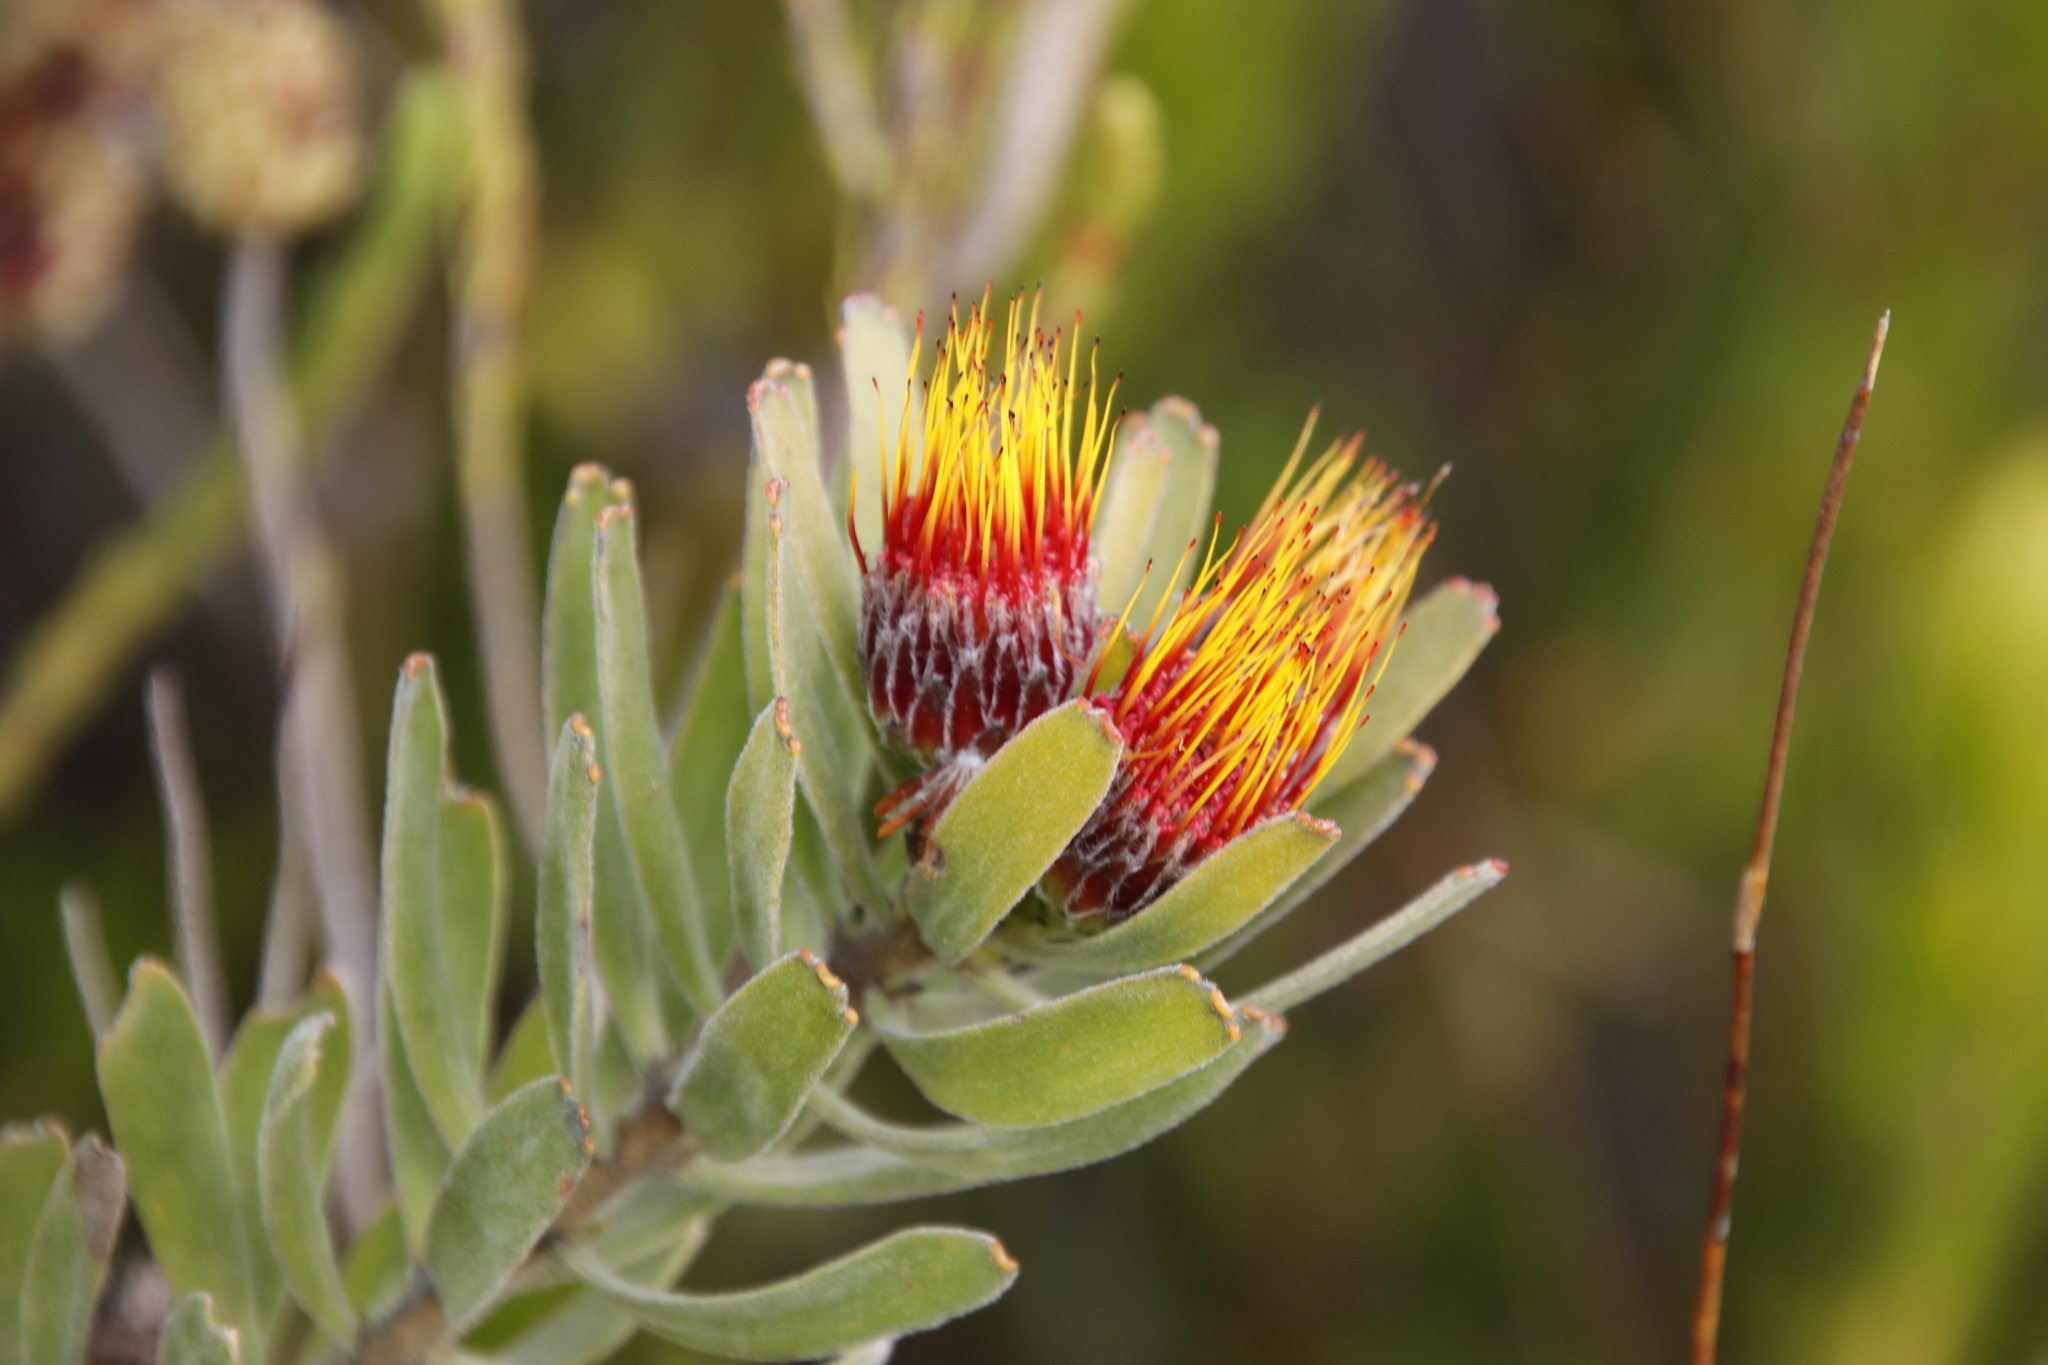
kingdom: Plantae
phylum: Tracheophyta
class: Magnoliopsida
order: Proteales
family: Proteaceae
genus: Leucospermum
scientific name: Leucospermum oleifolium
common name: Matches
